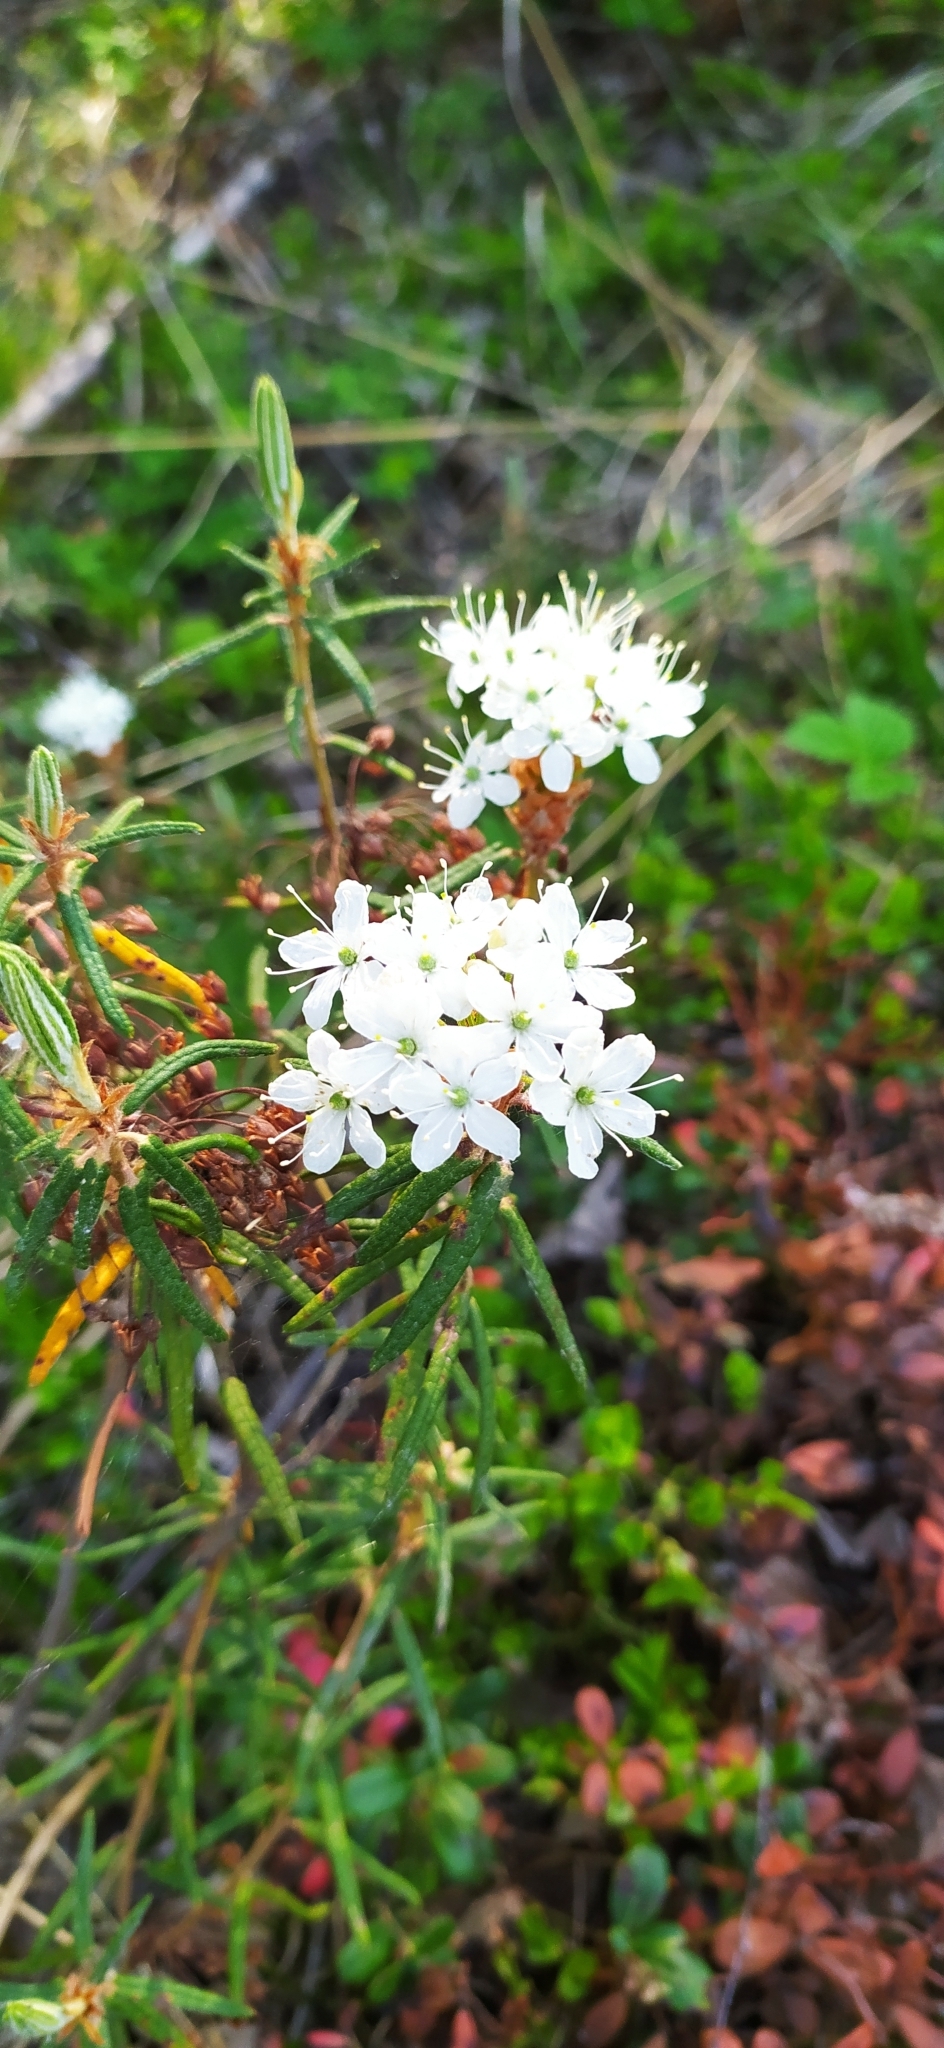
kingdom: Plantae
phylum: Tracheophyta
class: Magnoliopsida
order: Ericales
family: Ericaceae
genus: Rhododendron
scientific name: Rhododendron tomentosum
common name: Marsh labrador tea
